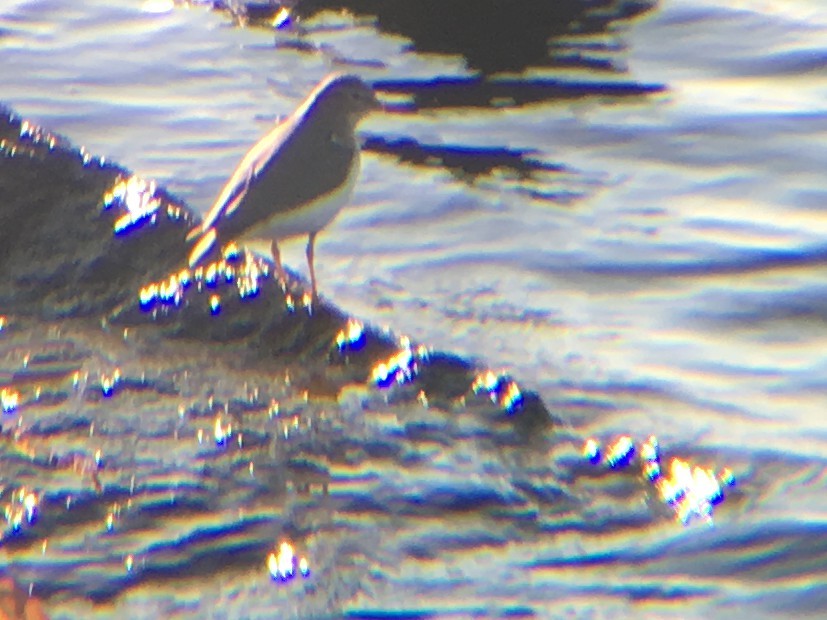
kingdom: Animalia
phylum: Chordata
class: Aves
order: Charadriiformes
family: Scolopacidae
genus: Actitis
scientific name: Actitis macularius
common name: Spotted sandpiper
